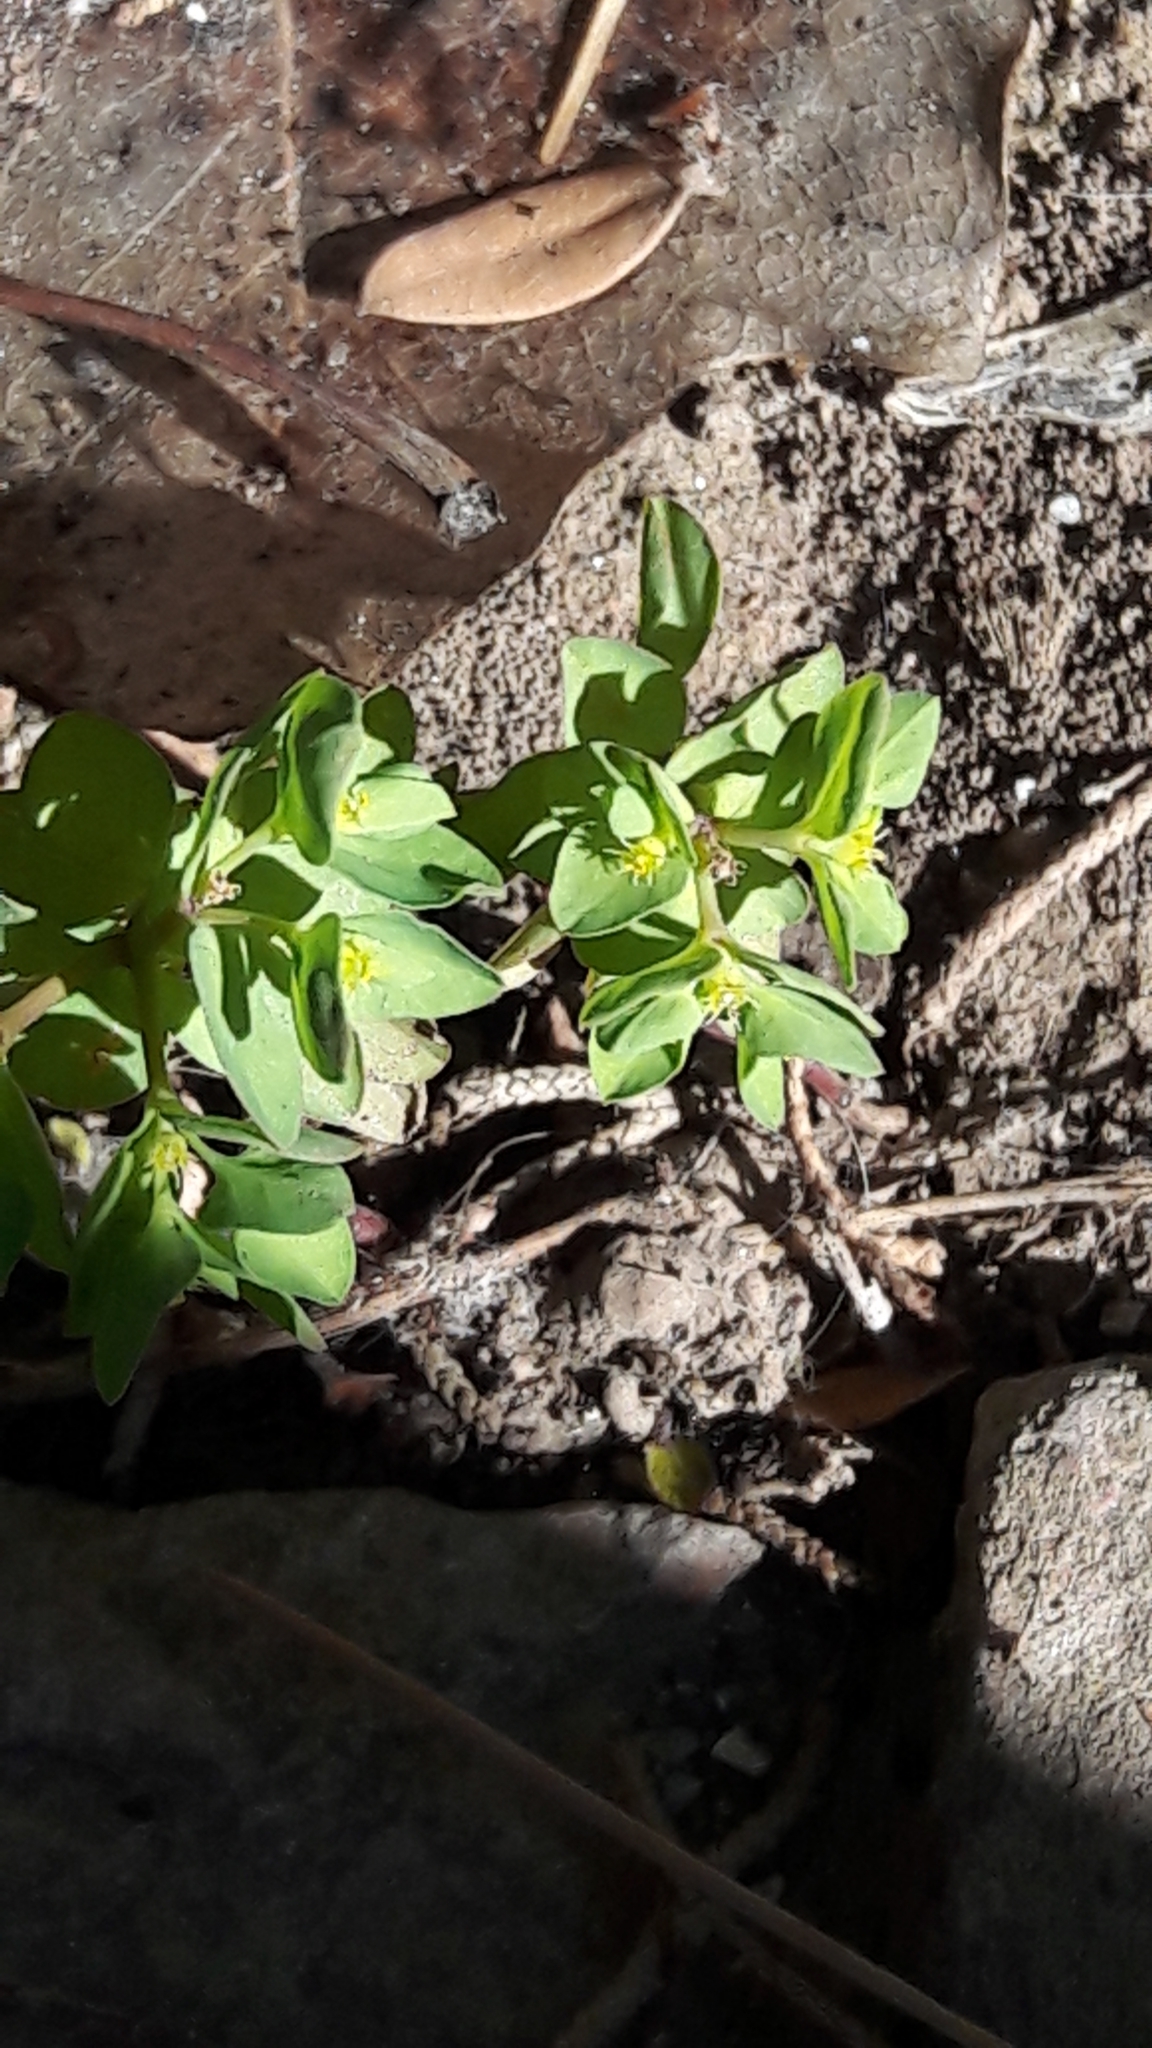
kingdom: Plantae
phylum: Tracheophyta
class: Magnoliopsida
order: Malpighiales
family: Euphorbiaceae
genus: Euphorbia
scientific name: Euphorbia peplus
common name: Petty spurge
